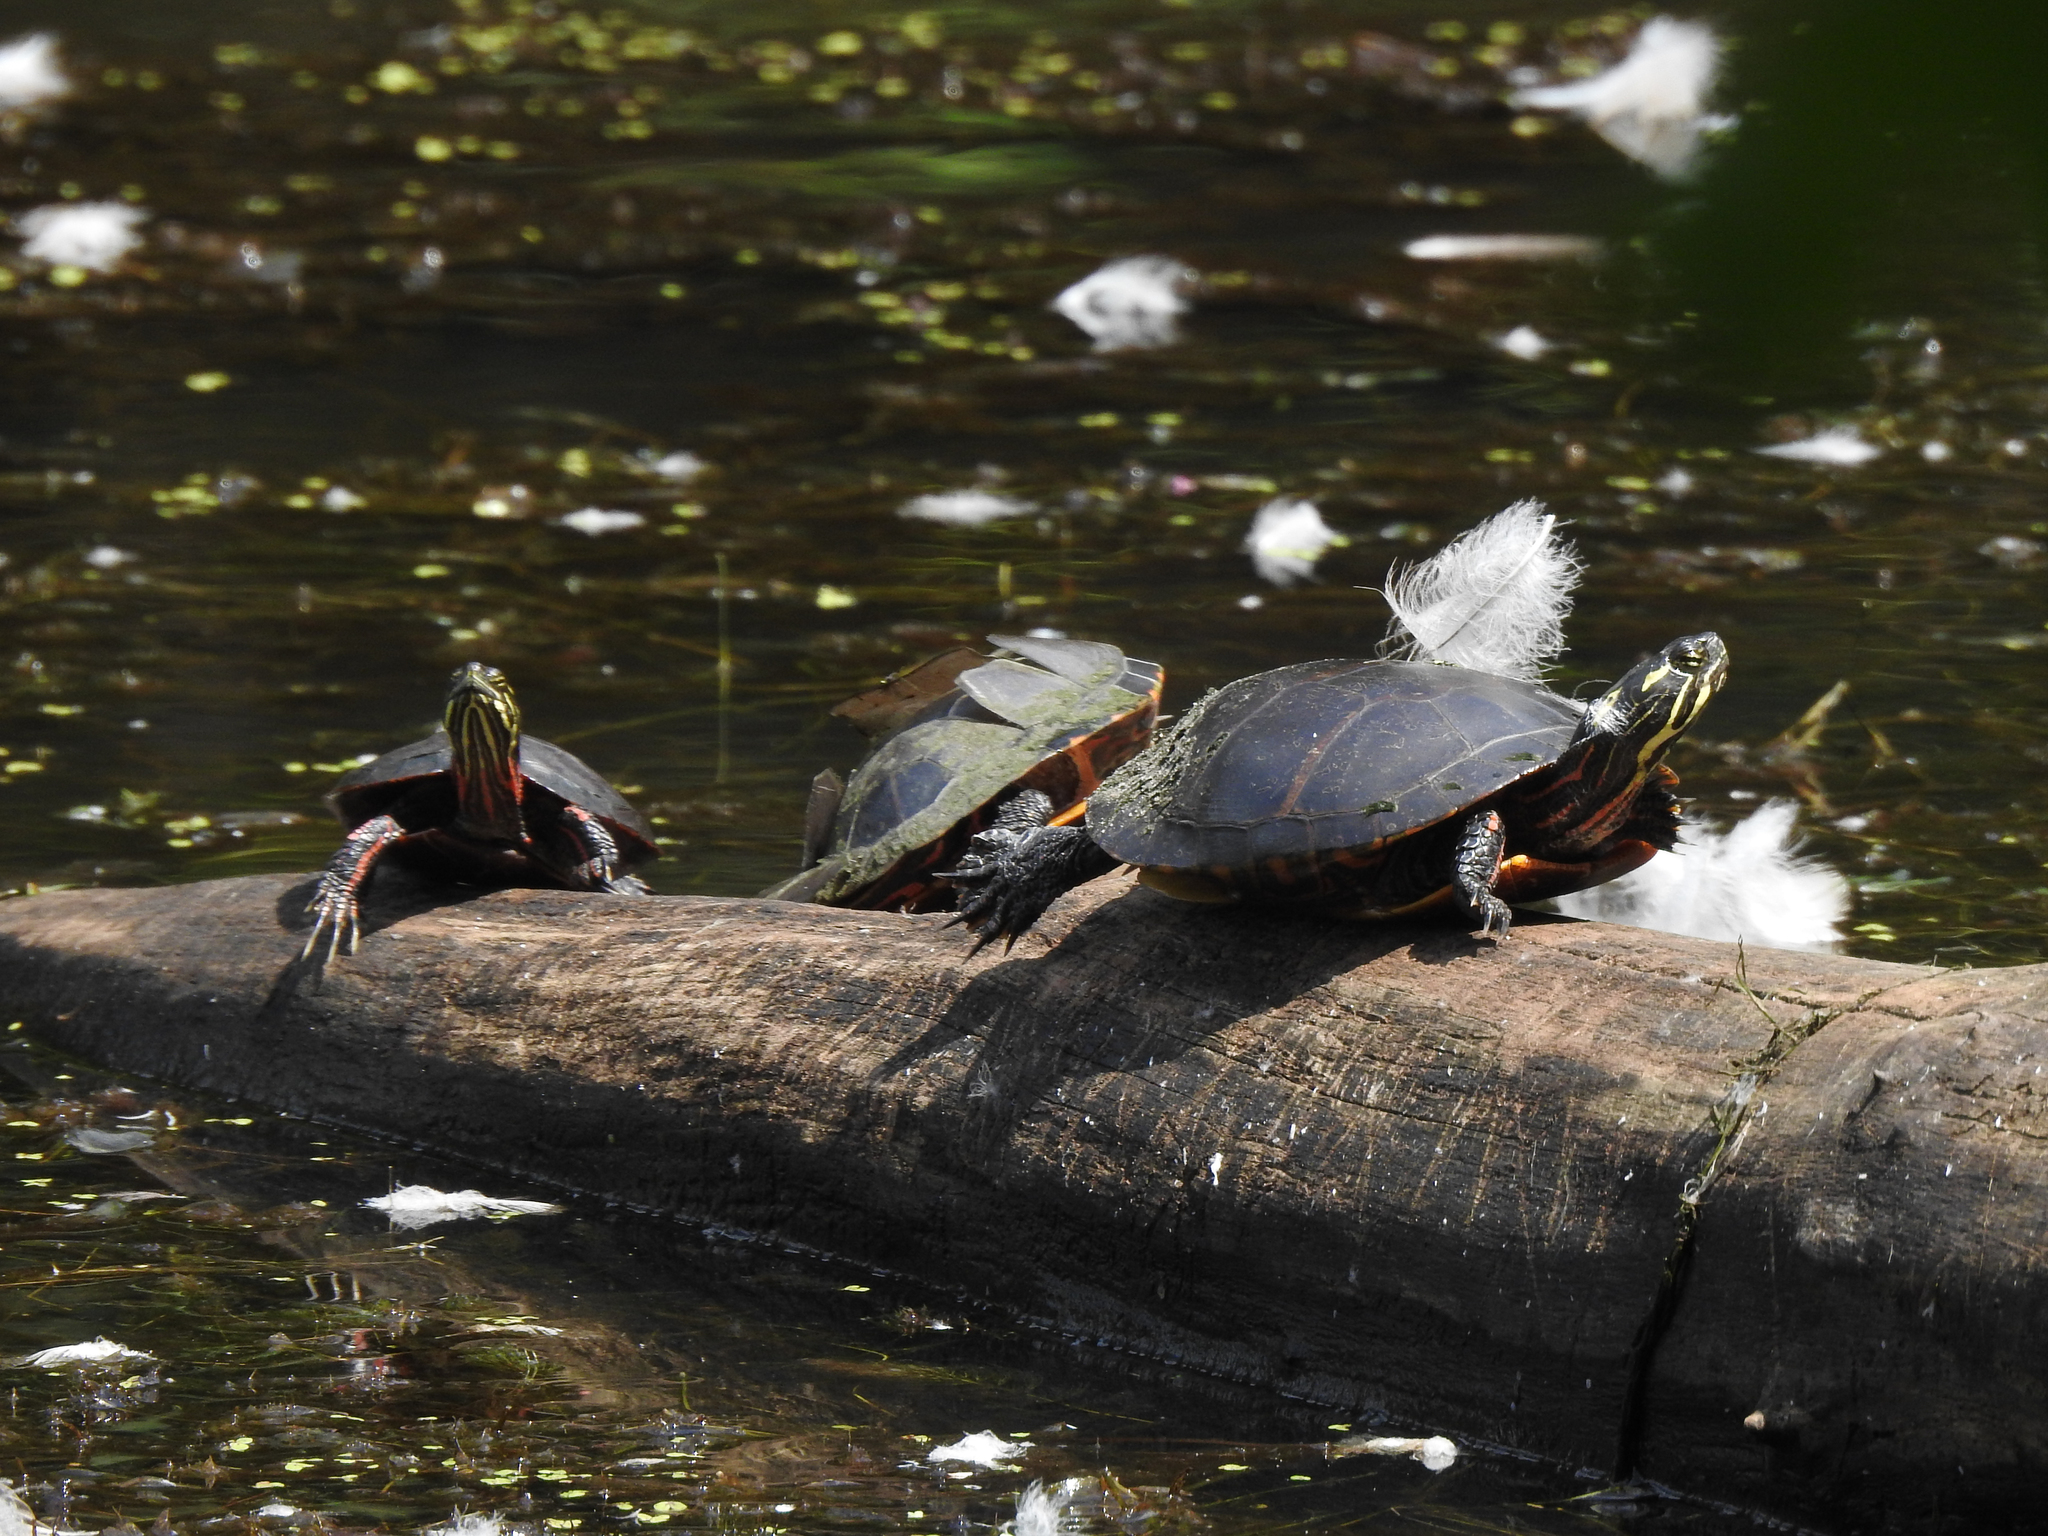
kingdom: Animalia
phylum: Chordata
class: Testudines
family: Emydidae
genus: Chrysemys
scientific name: Chrysemys picta
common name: Painted turtle
